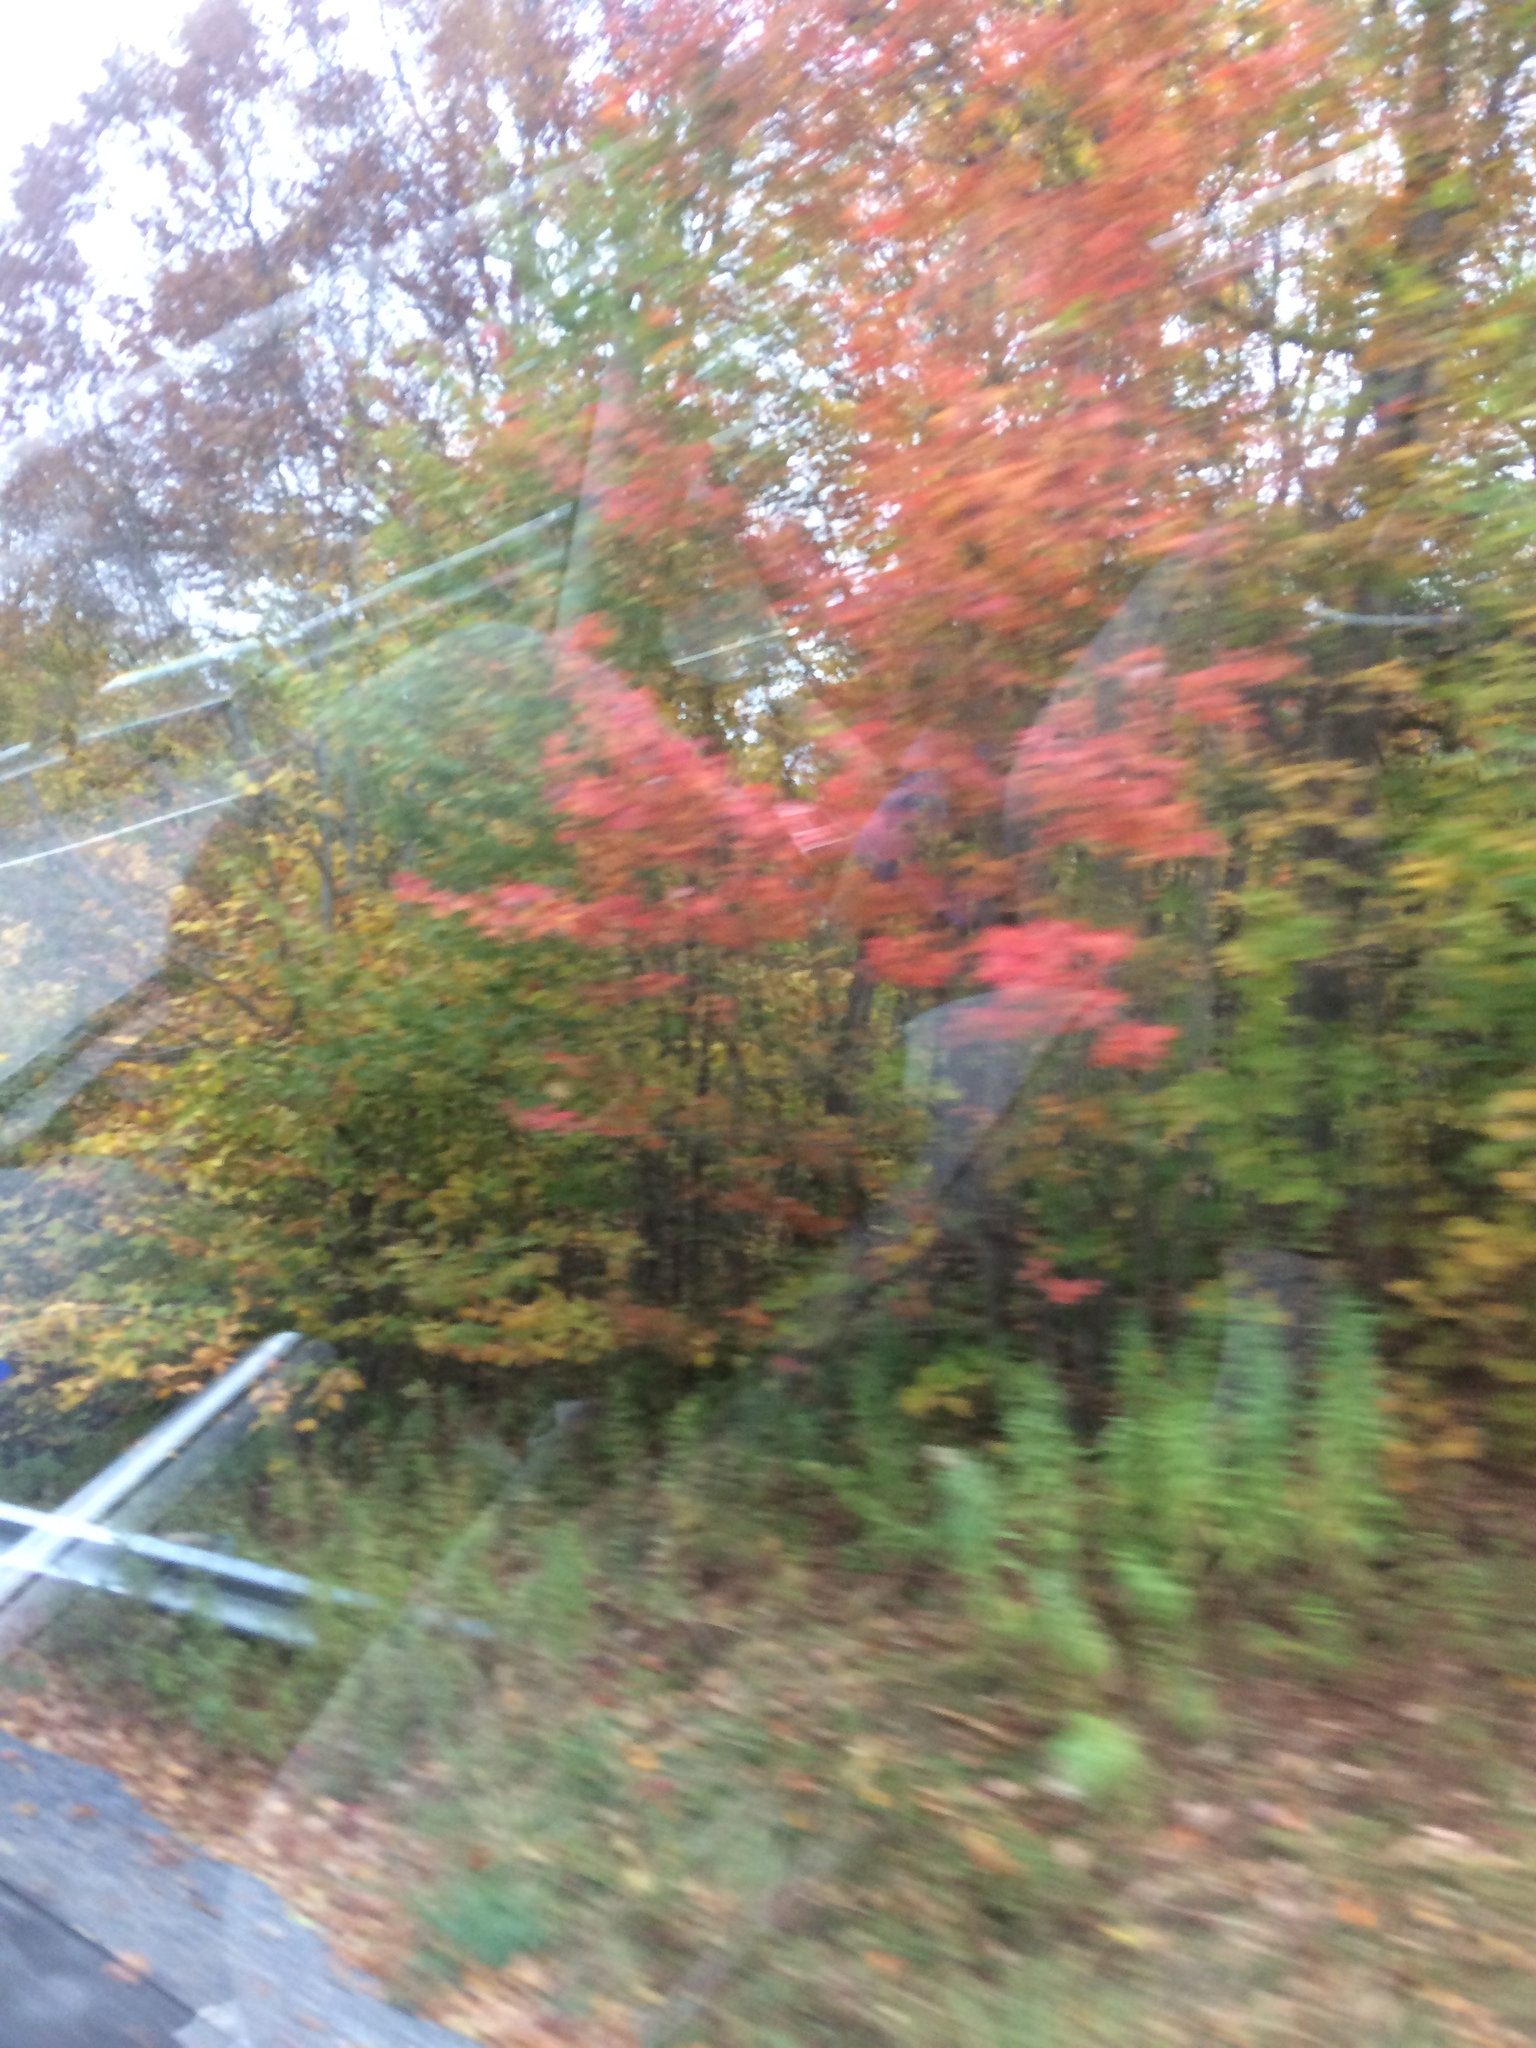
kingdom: Plantae
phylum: Tracheophyta
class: Magnoliopsida
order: Sapindales
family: Sapindaceae
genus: Acer
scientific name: Acer rubrum
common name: Red maple
